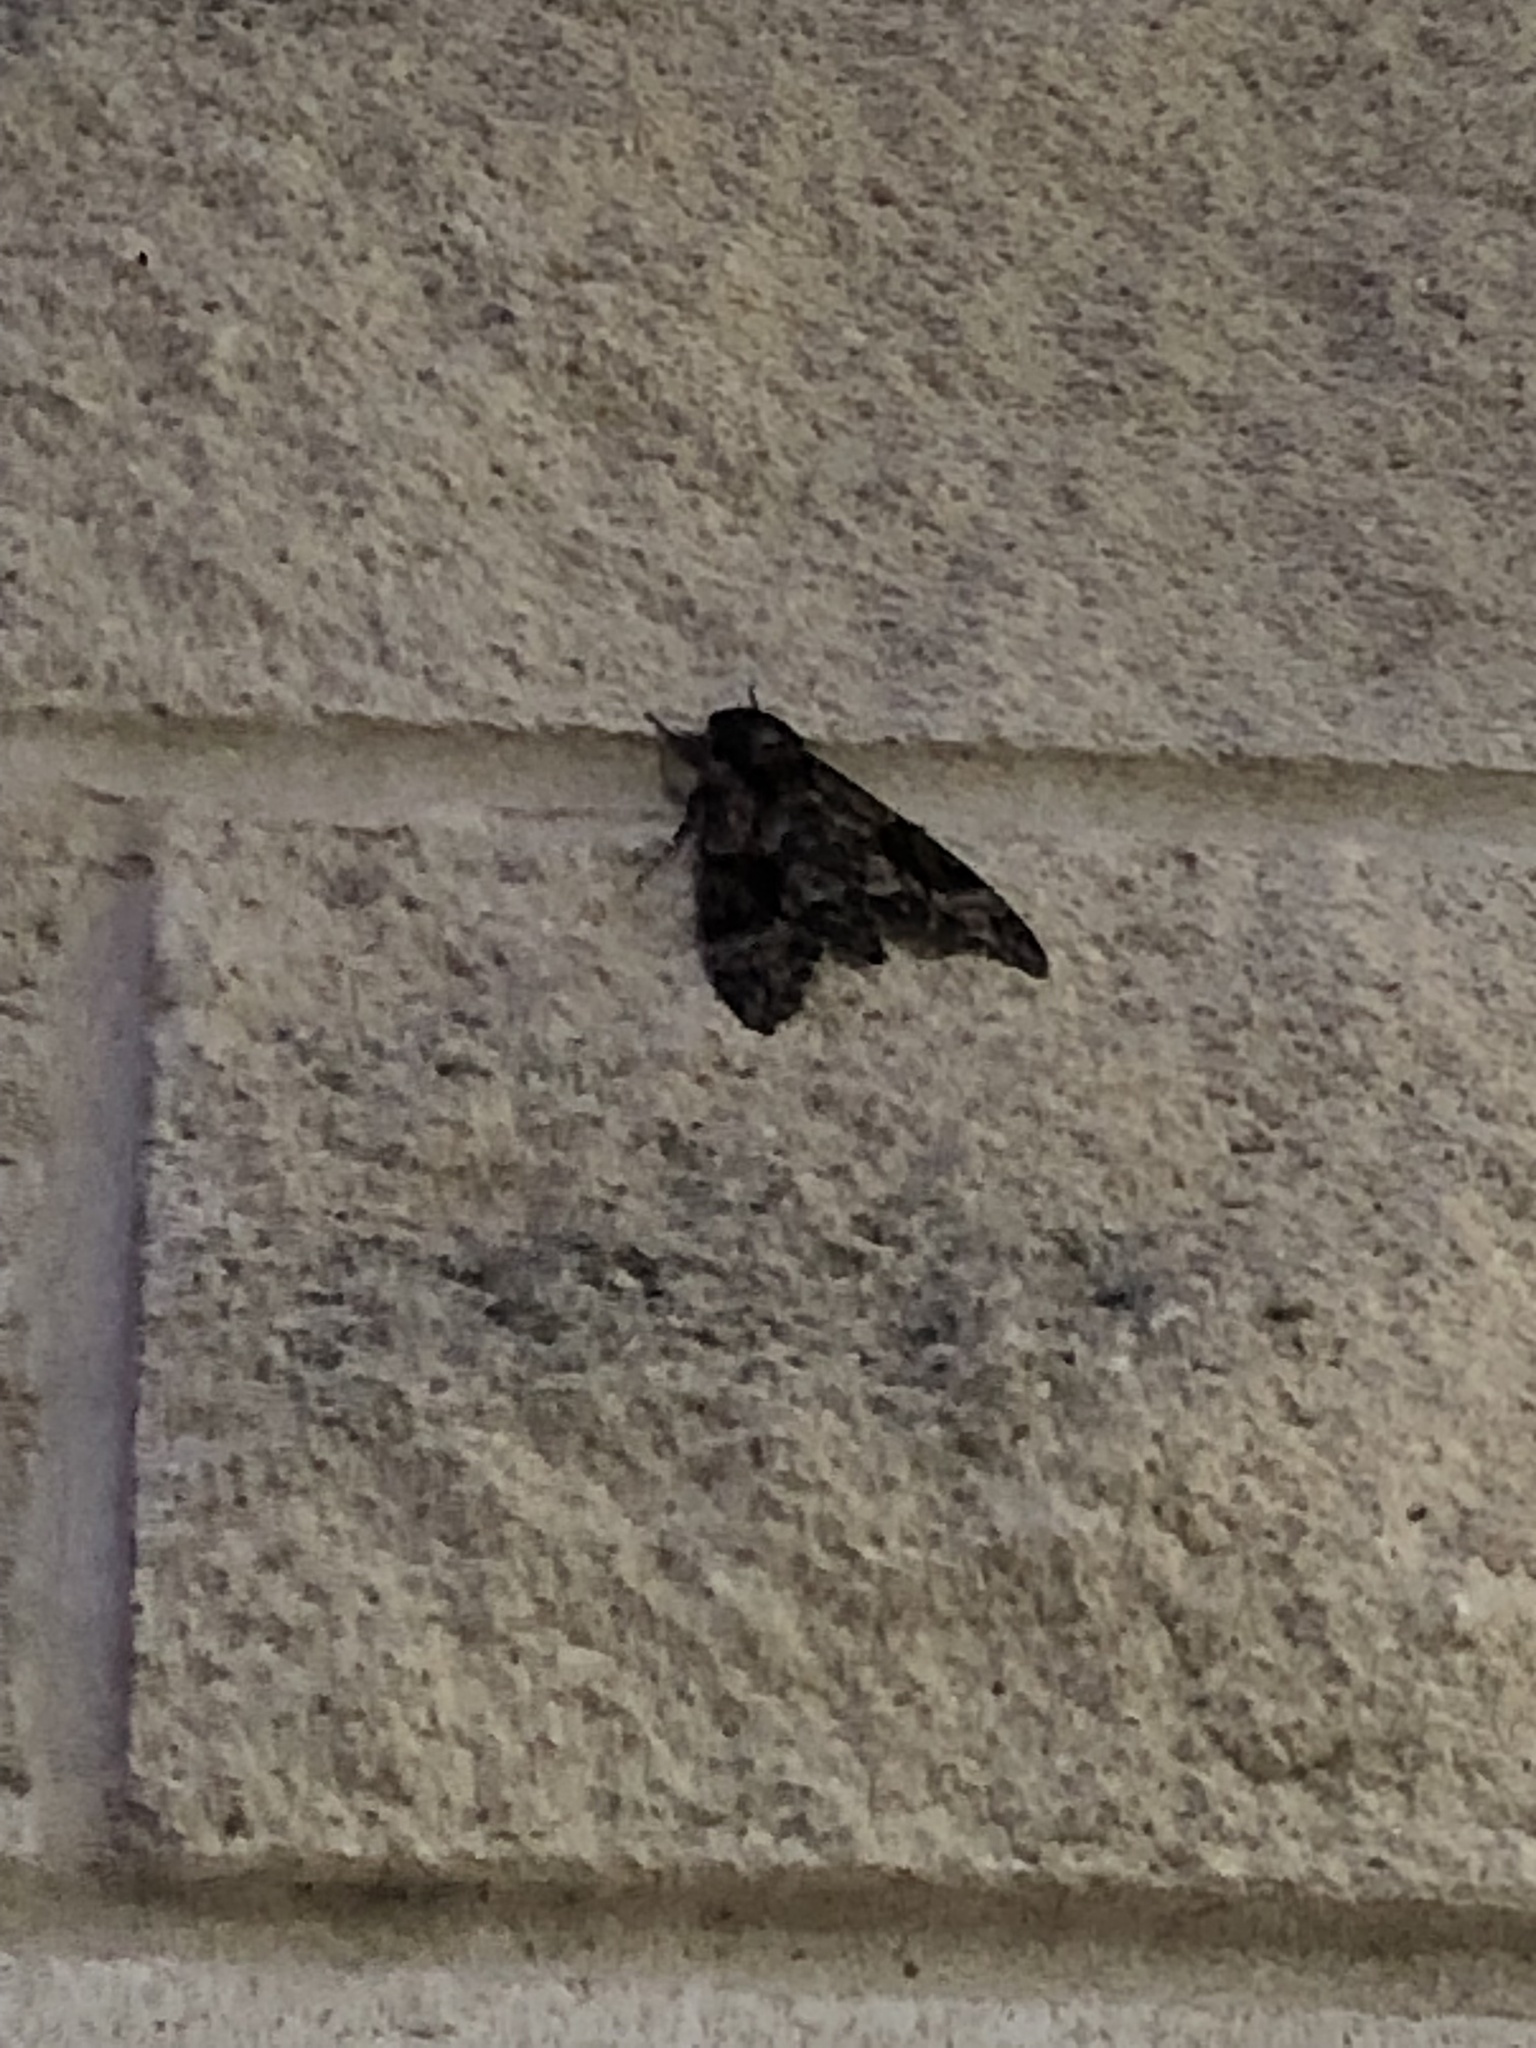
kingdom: Animalia
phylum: Arthropoda
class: Insecta
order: Lepidoptera
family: Sphingidae
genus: Agrius
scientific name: Agrius cingulata
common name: Pink-spotted hawkmoth
